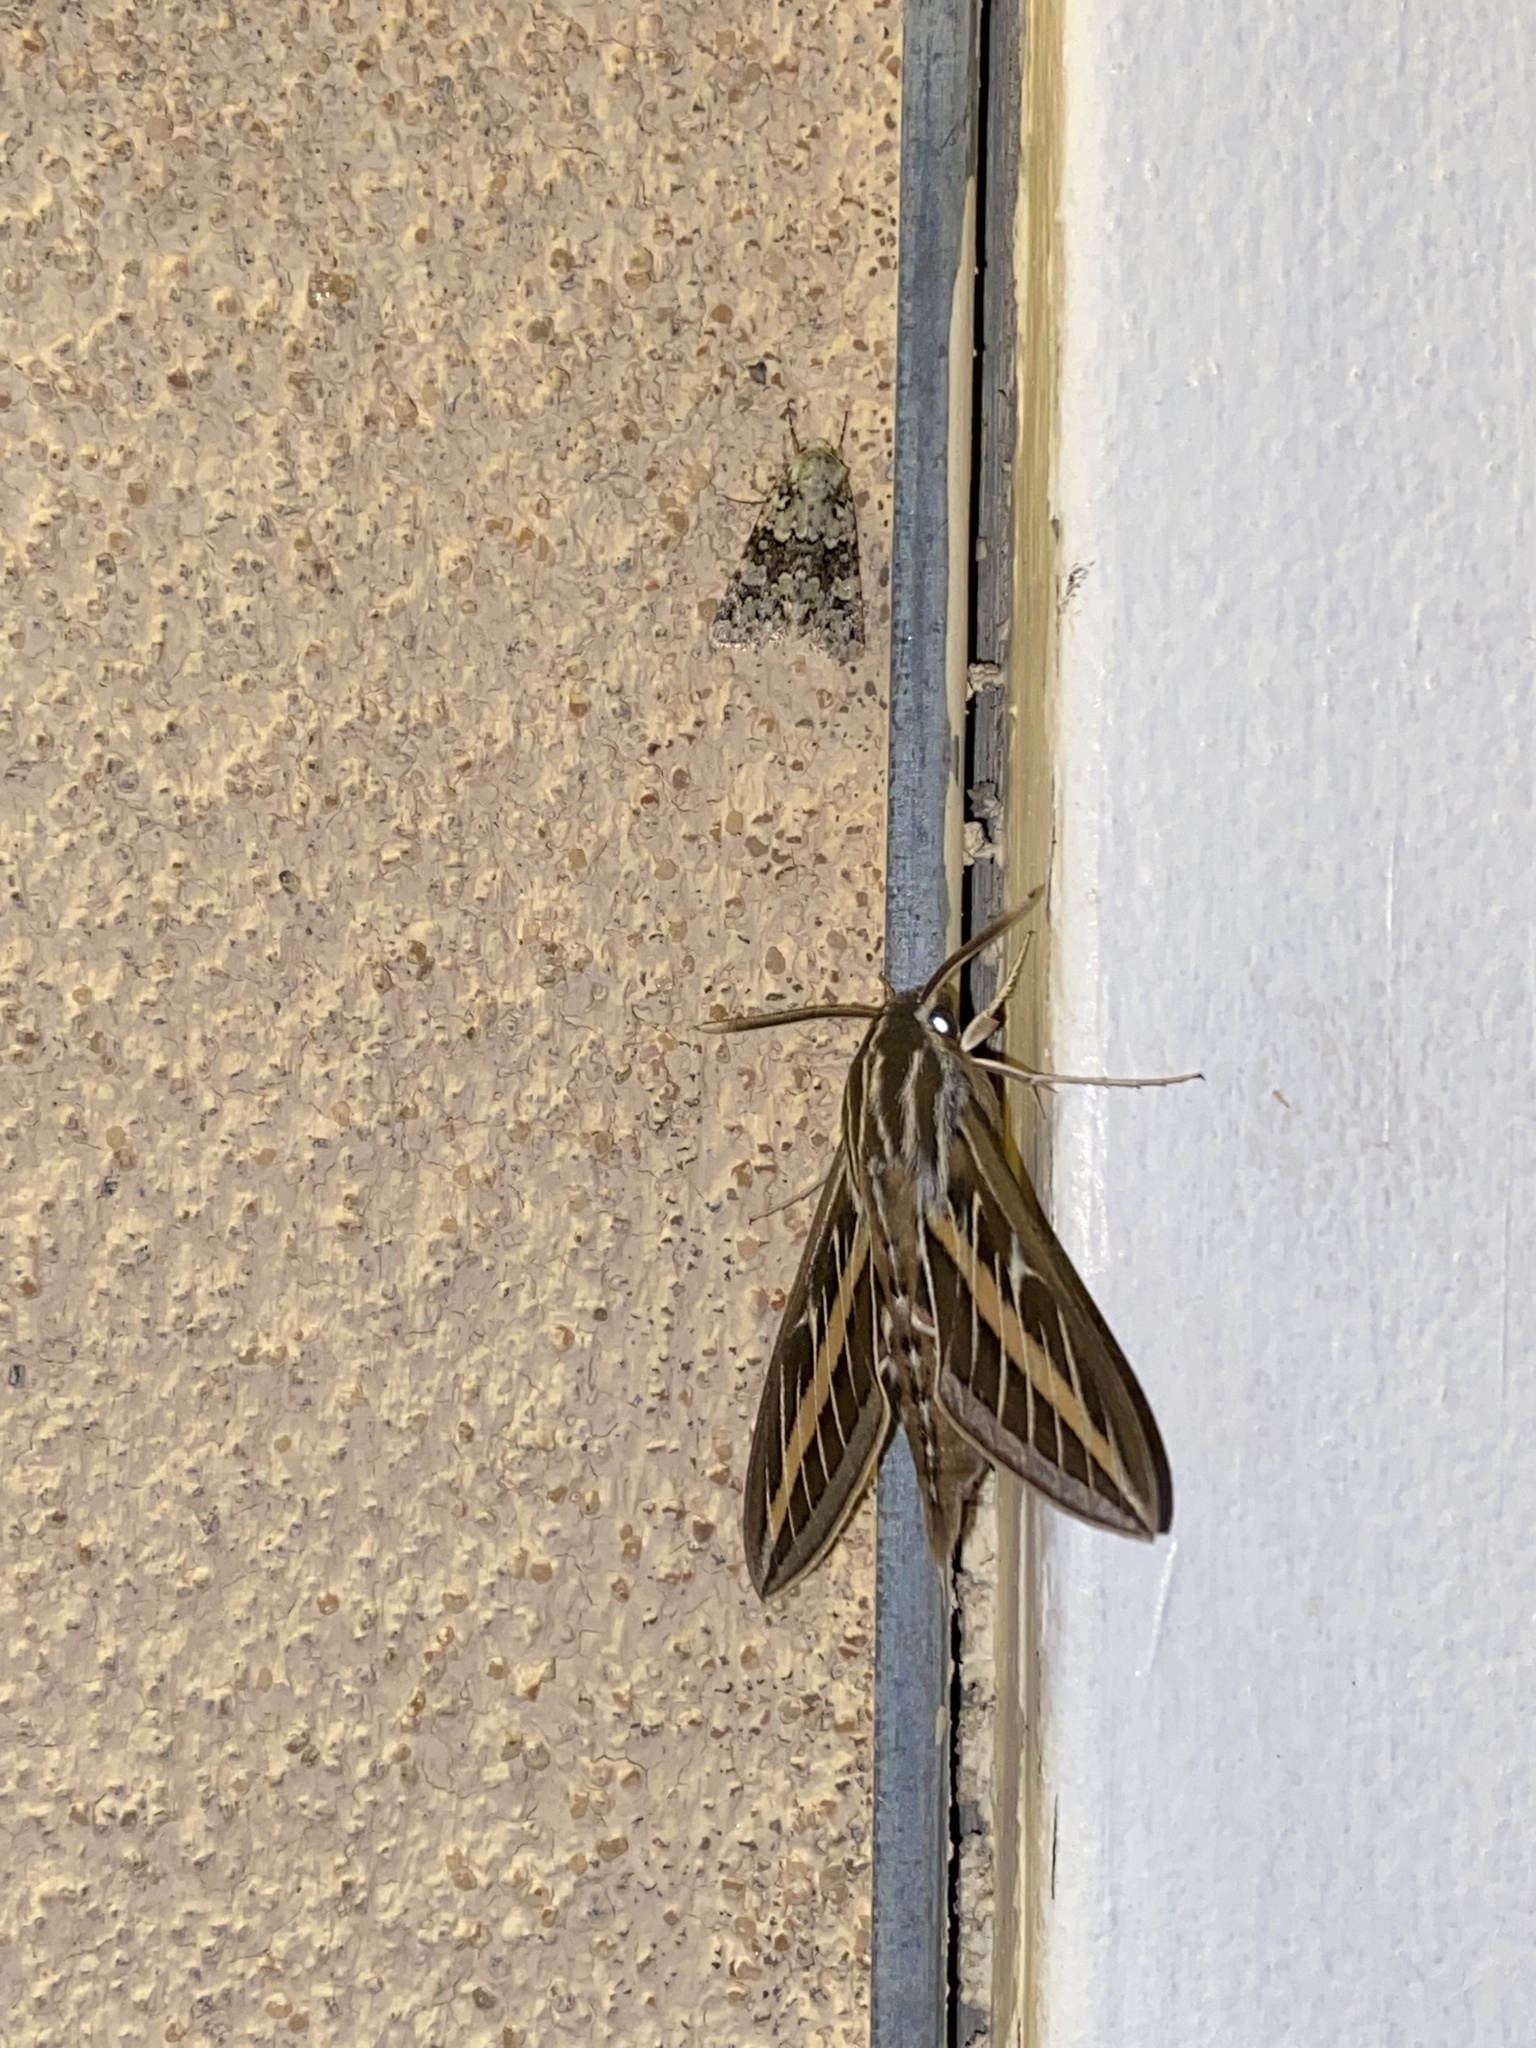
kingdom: Animalia
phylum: Arthropoda
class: Insecta
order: Lepidoptera
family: Noctuidae
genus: Lacinipolia
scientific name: Lacinipolia buscki
